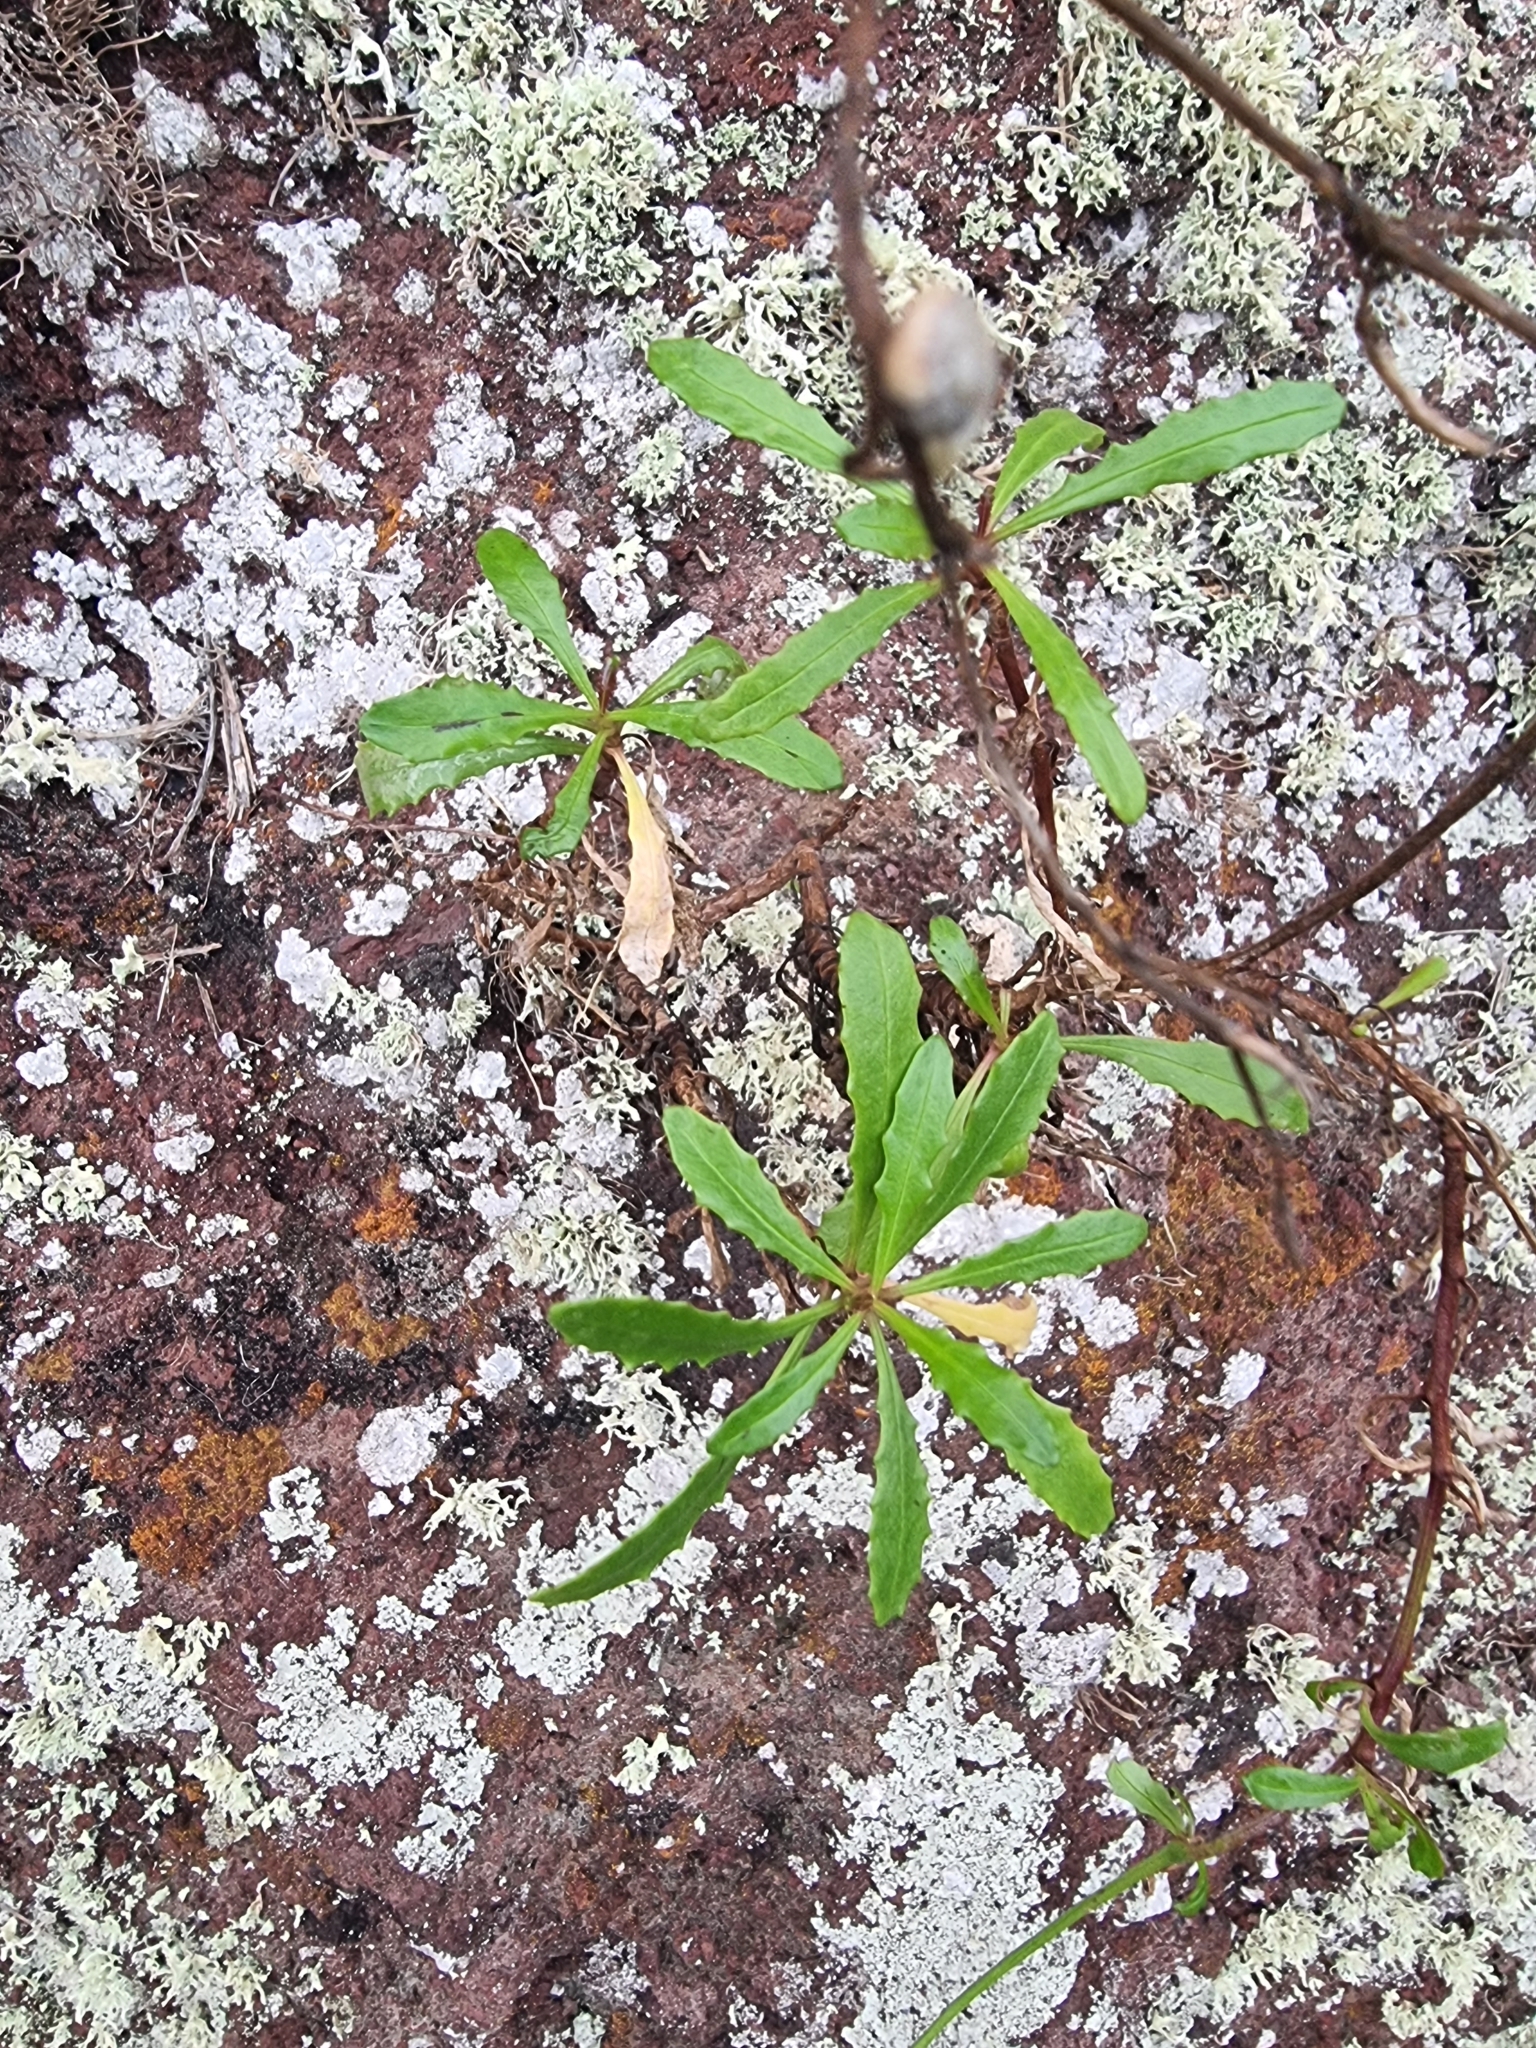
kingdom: Plantae
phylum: Tracheophyta
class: Magnoliopsida
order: Asterales
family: Asteraceae
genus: Tolpis
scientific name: Tolpis succulenta
